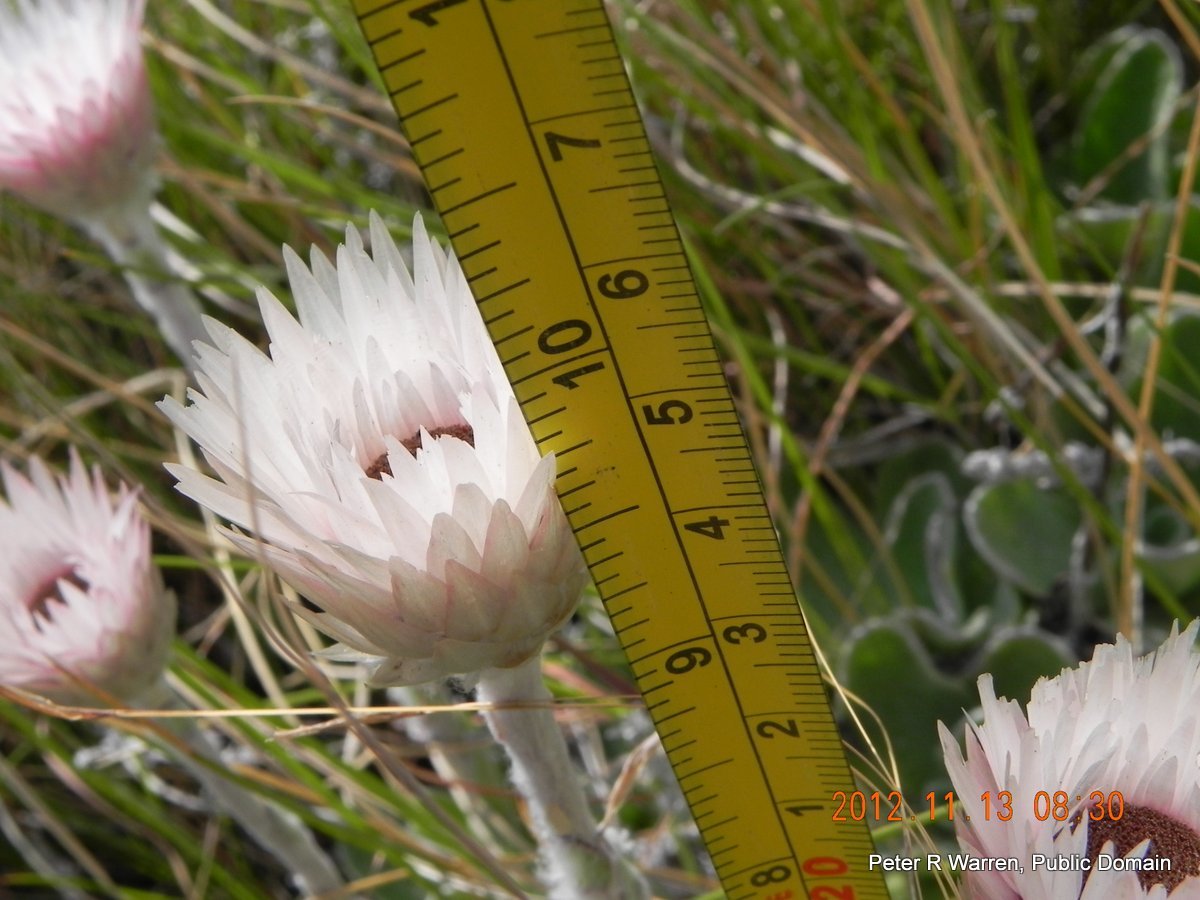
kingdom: Plantae
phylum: Tracheophyta
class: Magnoliopsida
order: Asterales
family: Asteraceae
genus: Helichrysum
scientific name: Helichrysum ecklonis
